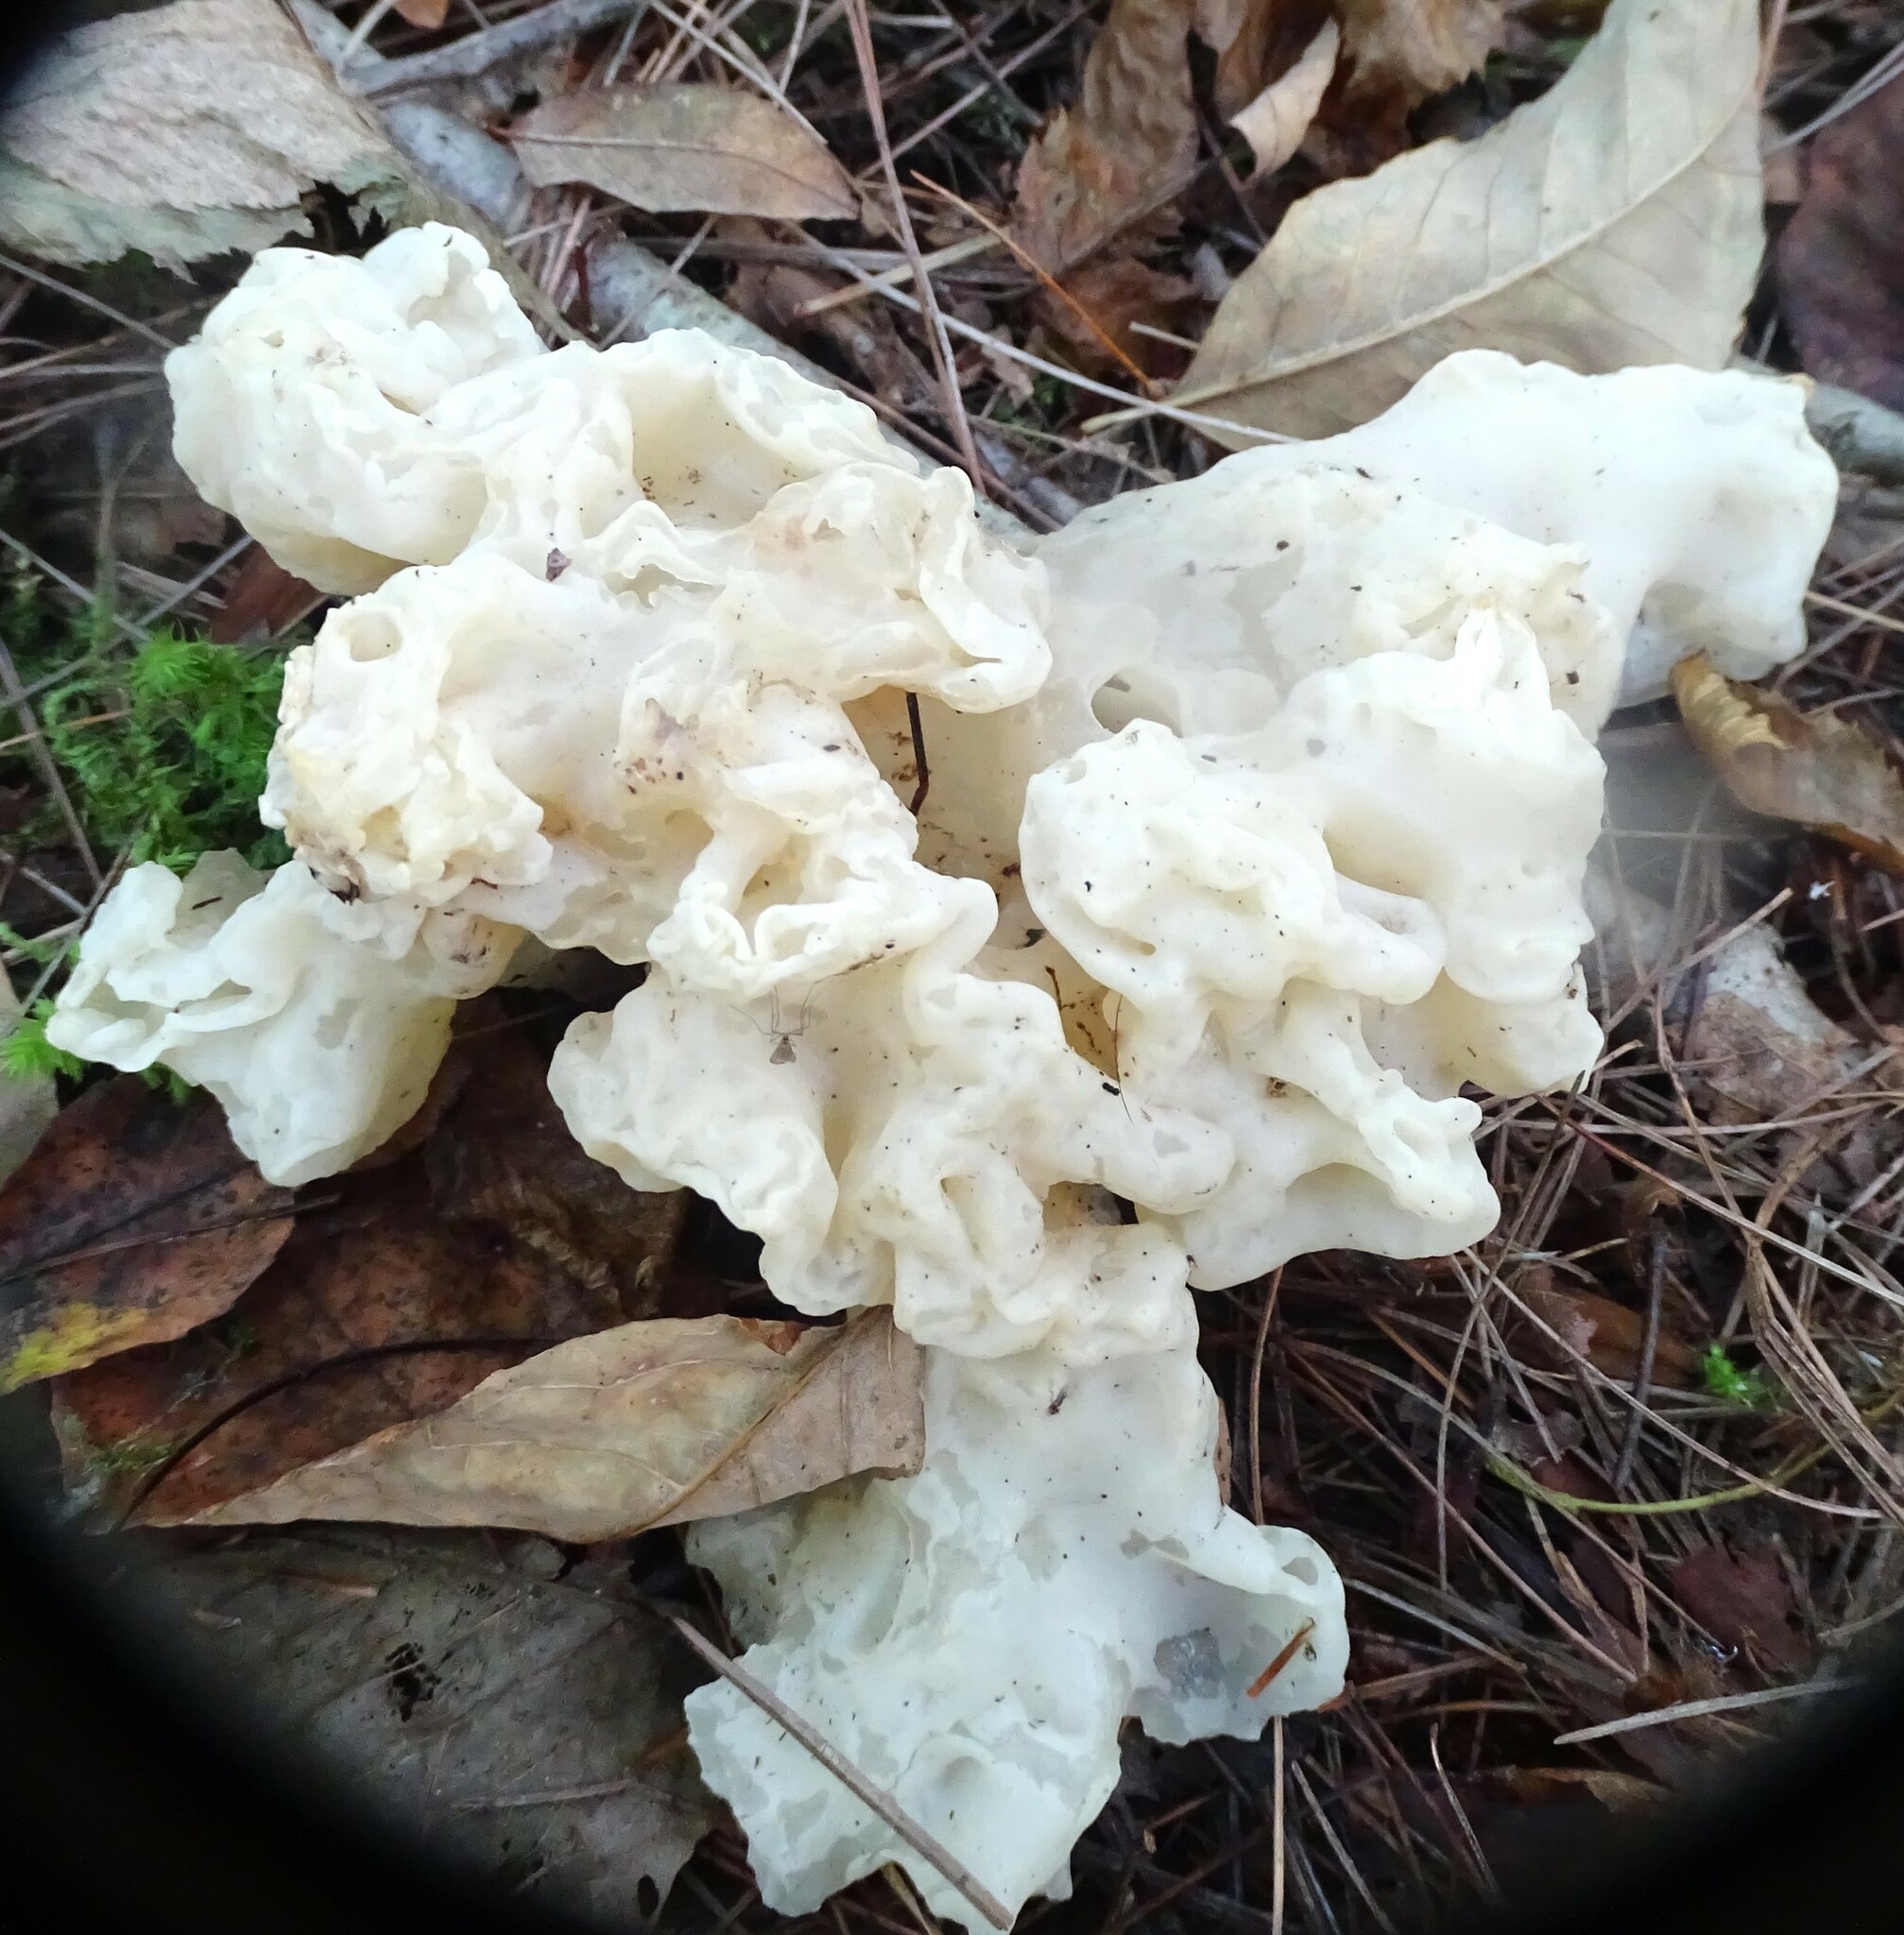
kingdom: Fungi
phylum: Basidiomycota
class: Agaricomycetes
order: Sebacinales
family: Sebacinaceae
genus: Sebacina
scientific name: Sebacina sparassoidea
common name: White coral jelly fungus
